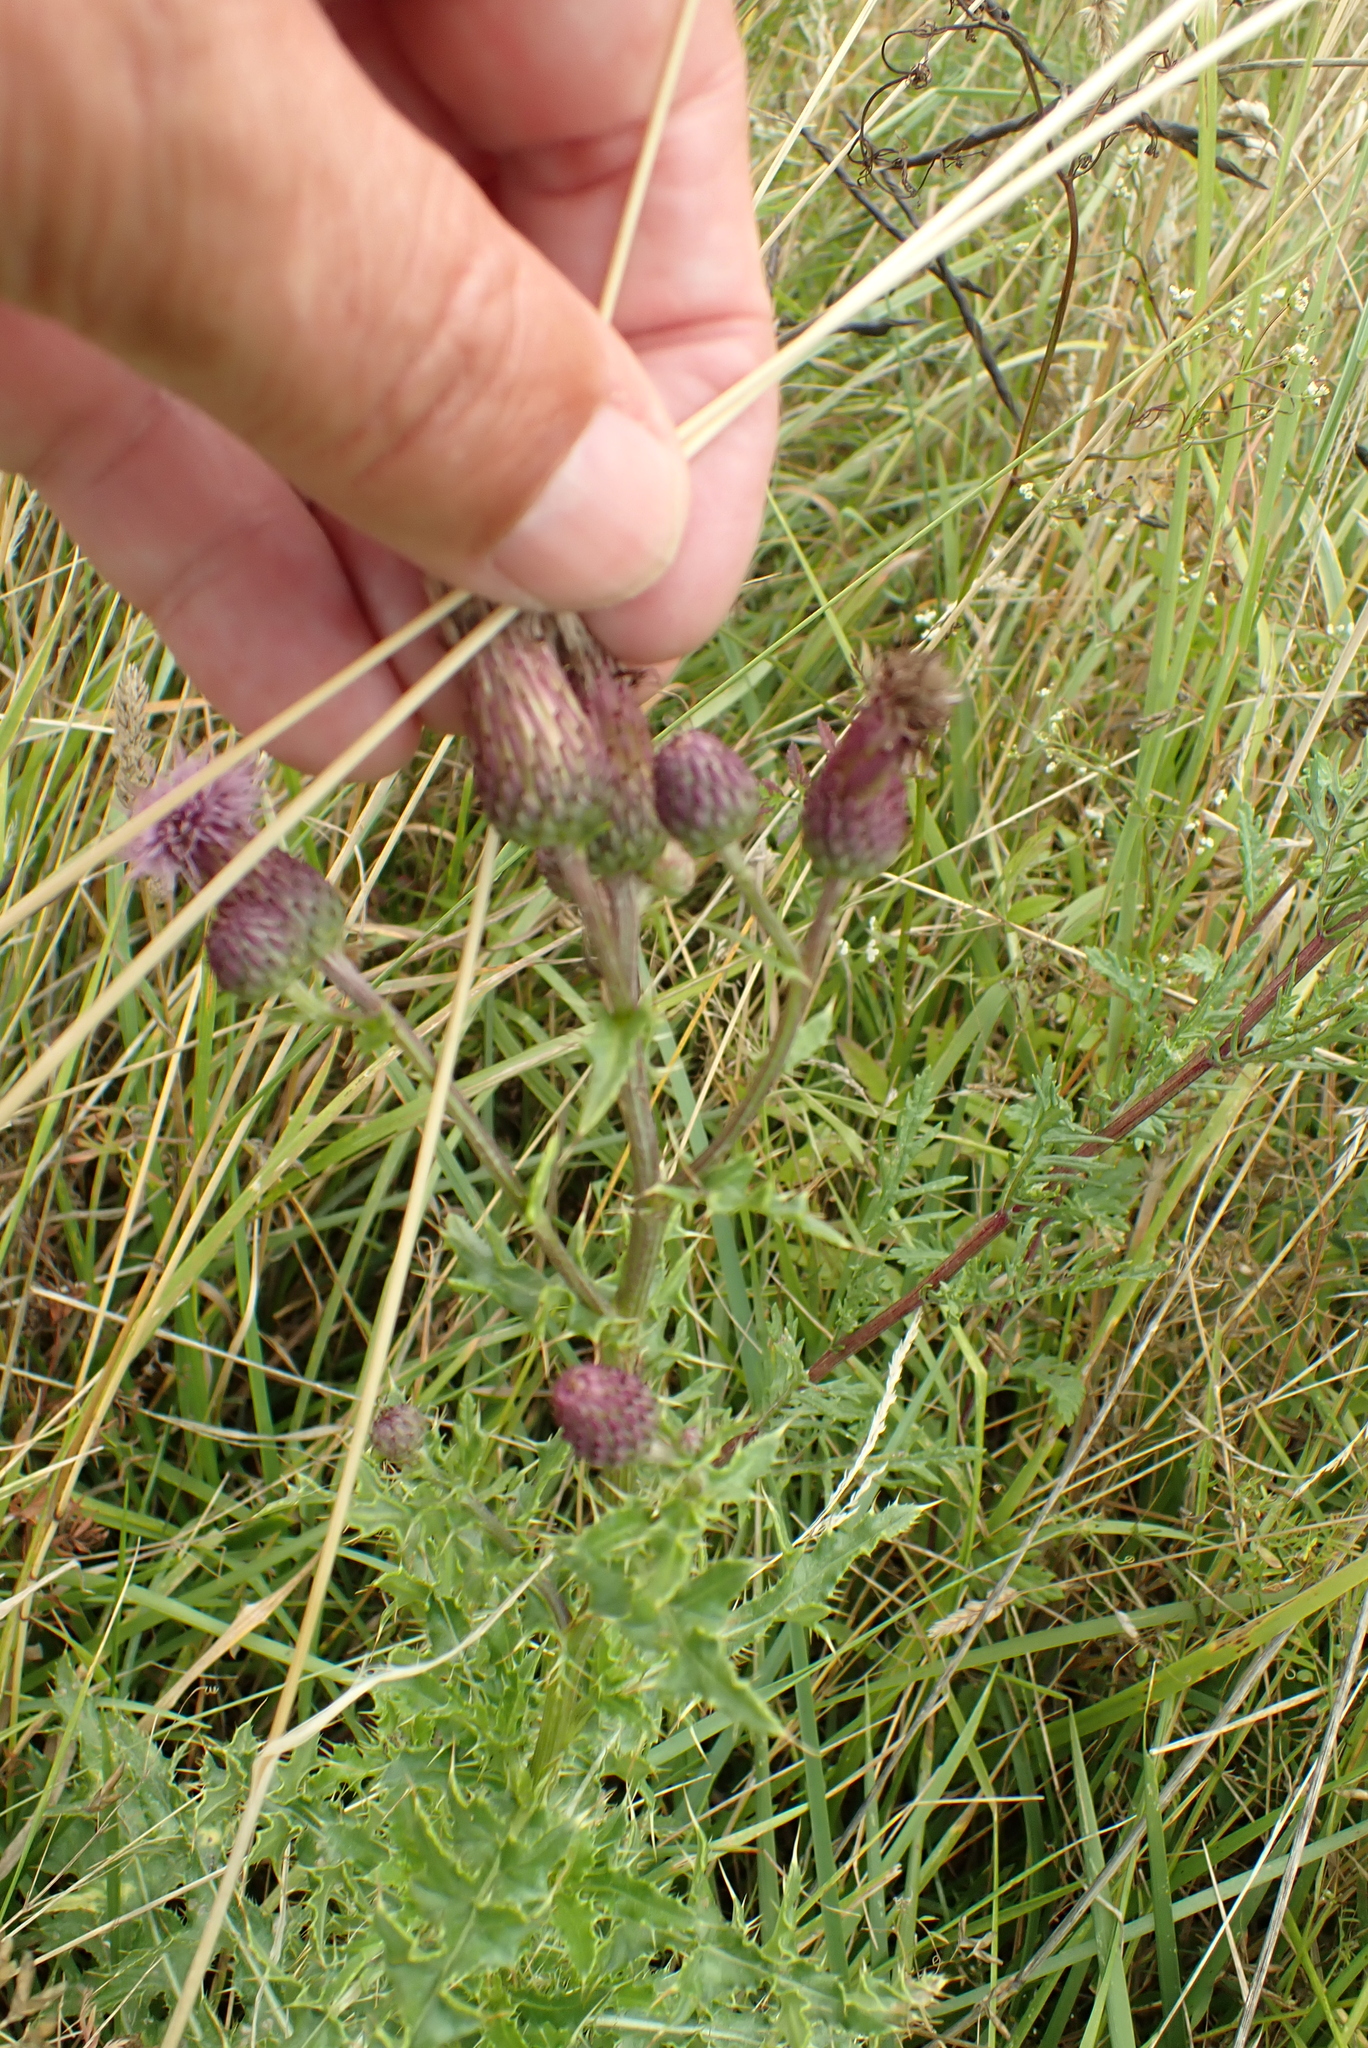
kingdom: Plantae
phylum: Tracheophyta
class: Magnoliopsida
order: Asterales
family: Asteraceae
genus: Cirsium
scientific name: Cirsium arvense
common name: Creeping thistle
